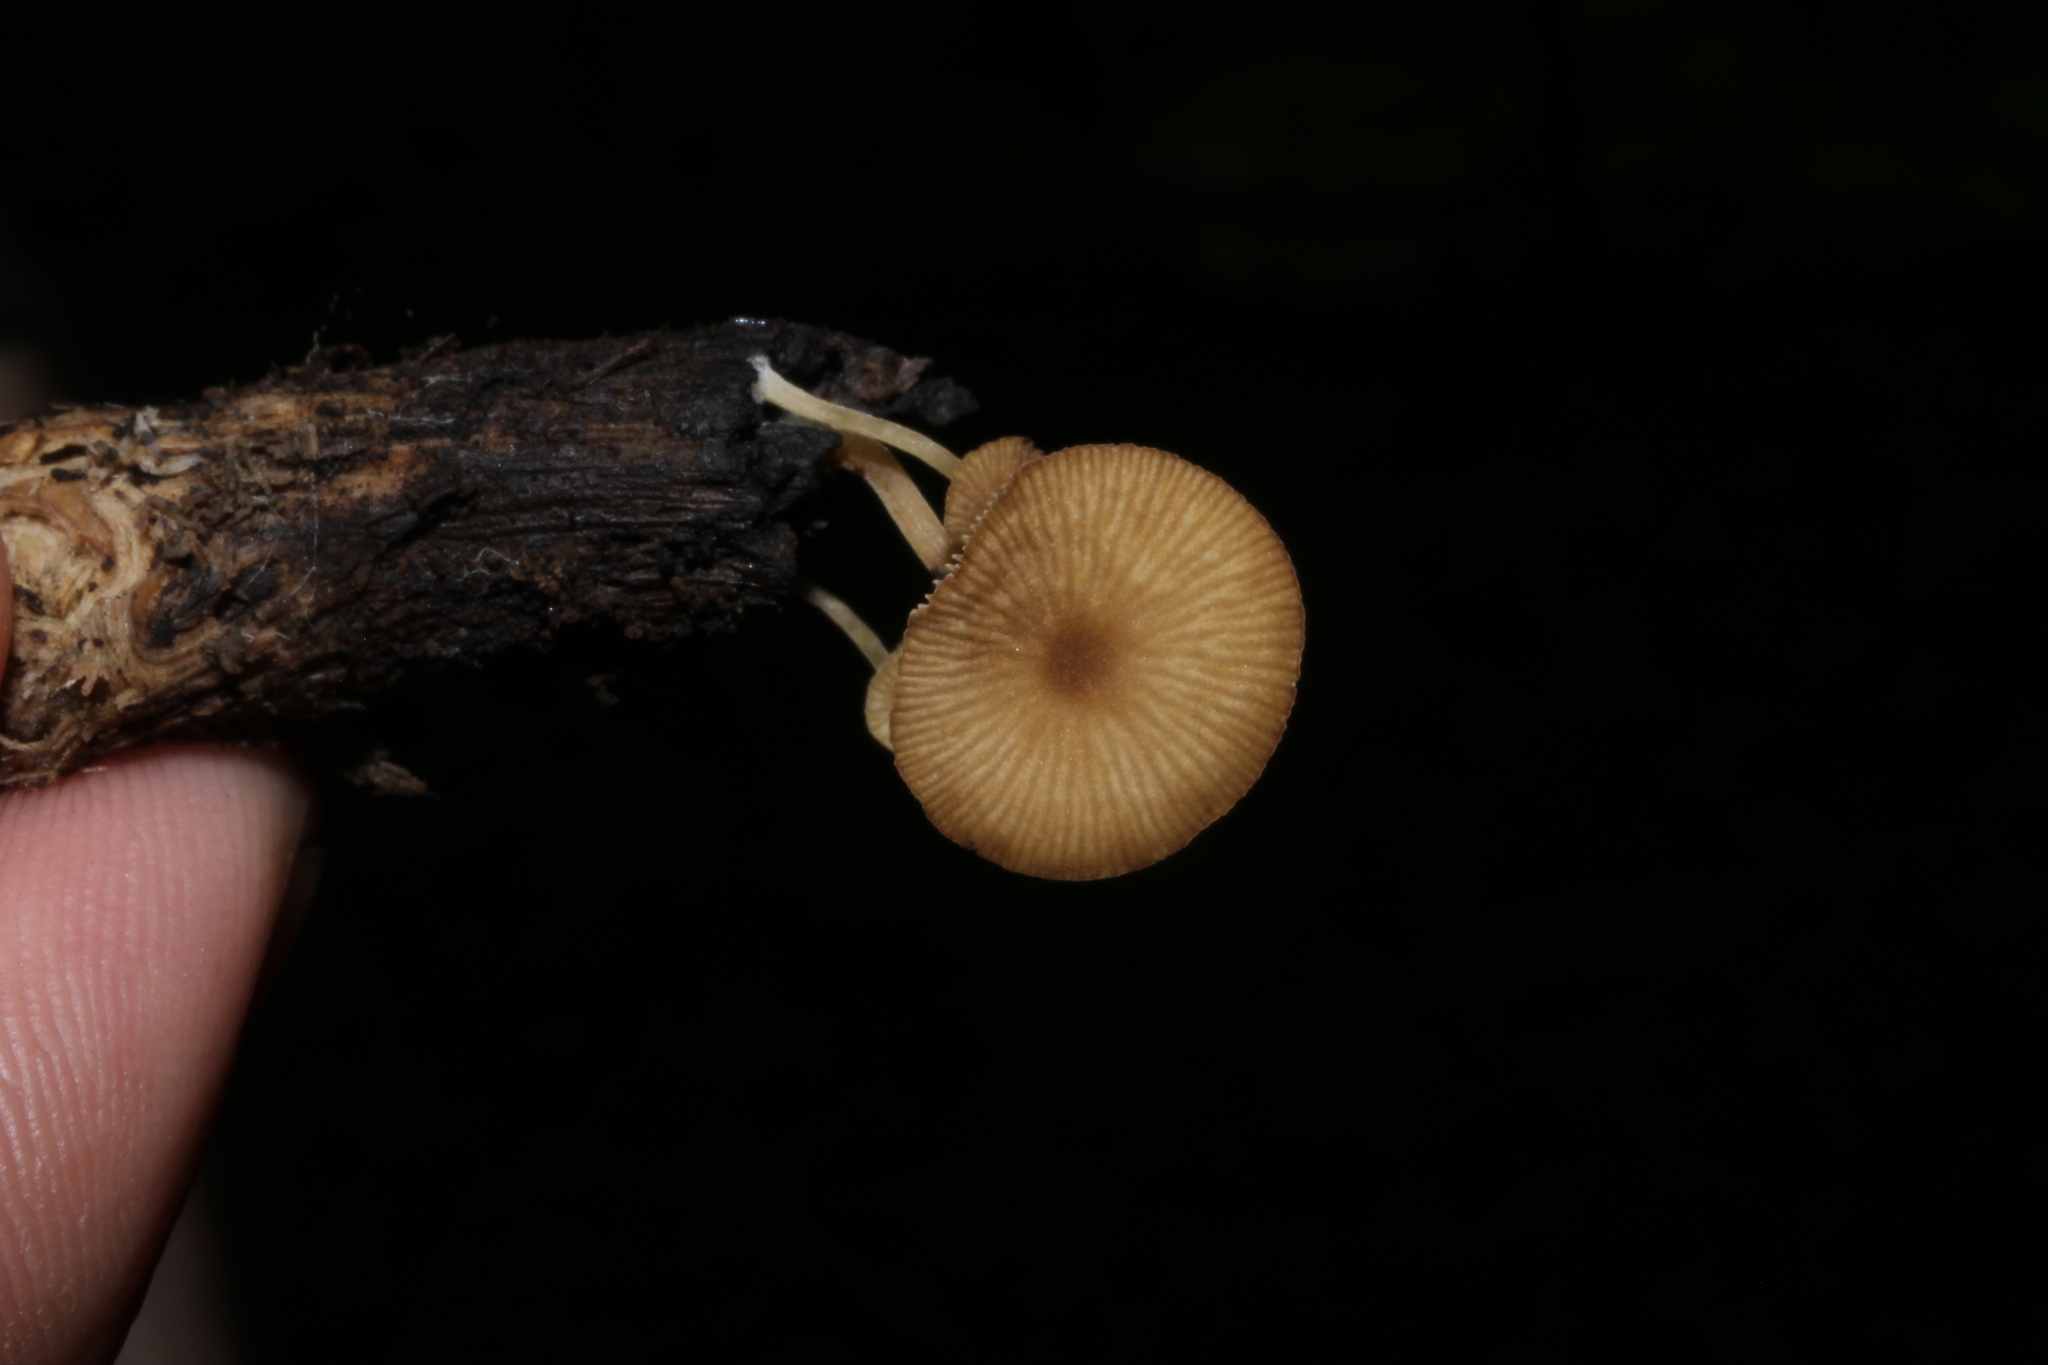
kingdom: Fungi
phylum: Basidiomycota
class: Agaricomycetes
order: Agaricales
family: Crepidotaceae
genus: Simocybe
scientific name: Simocybe centunculus
